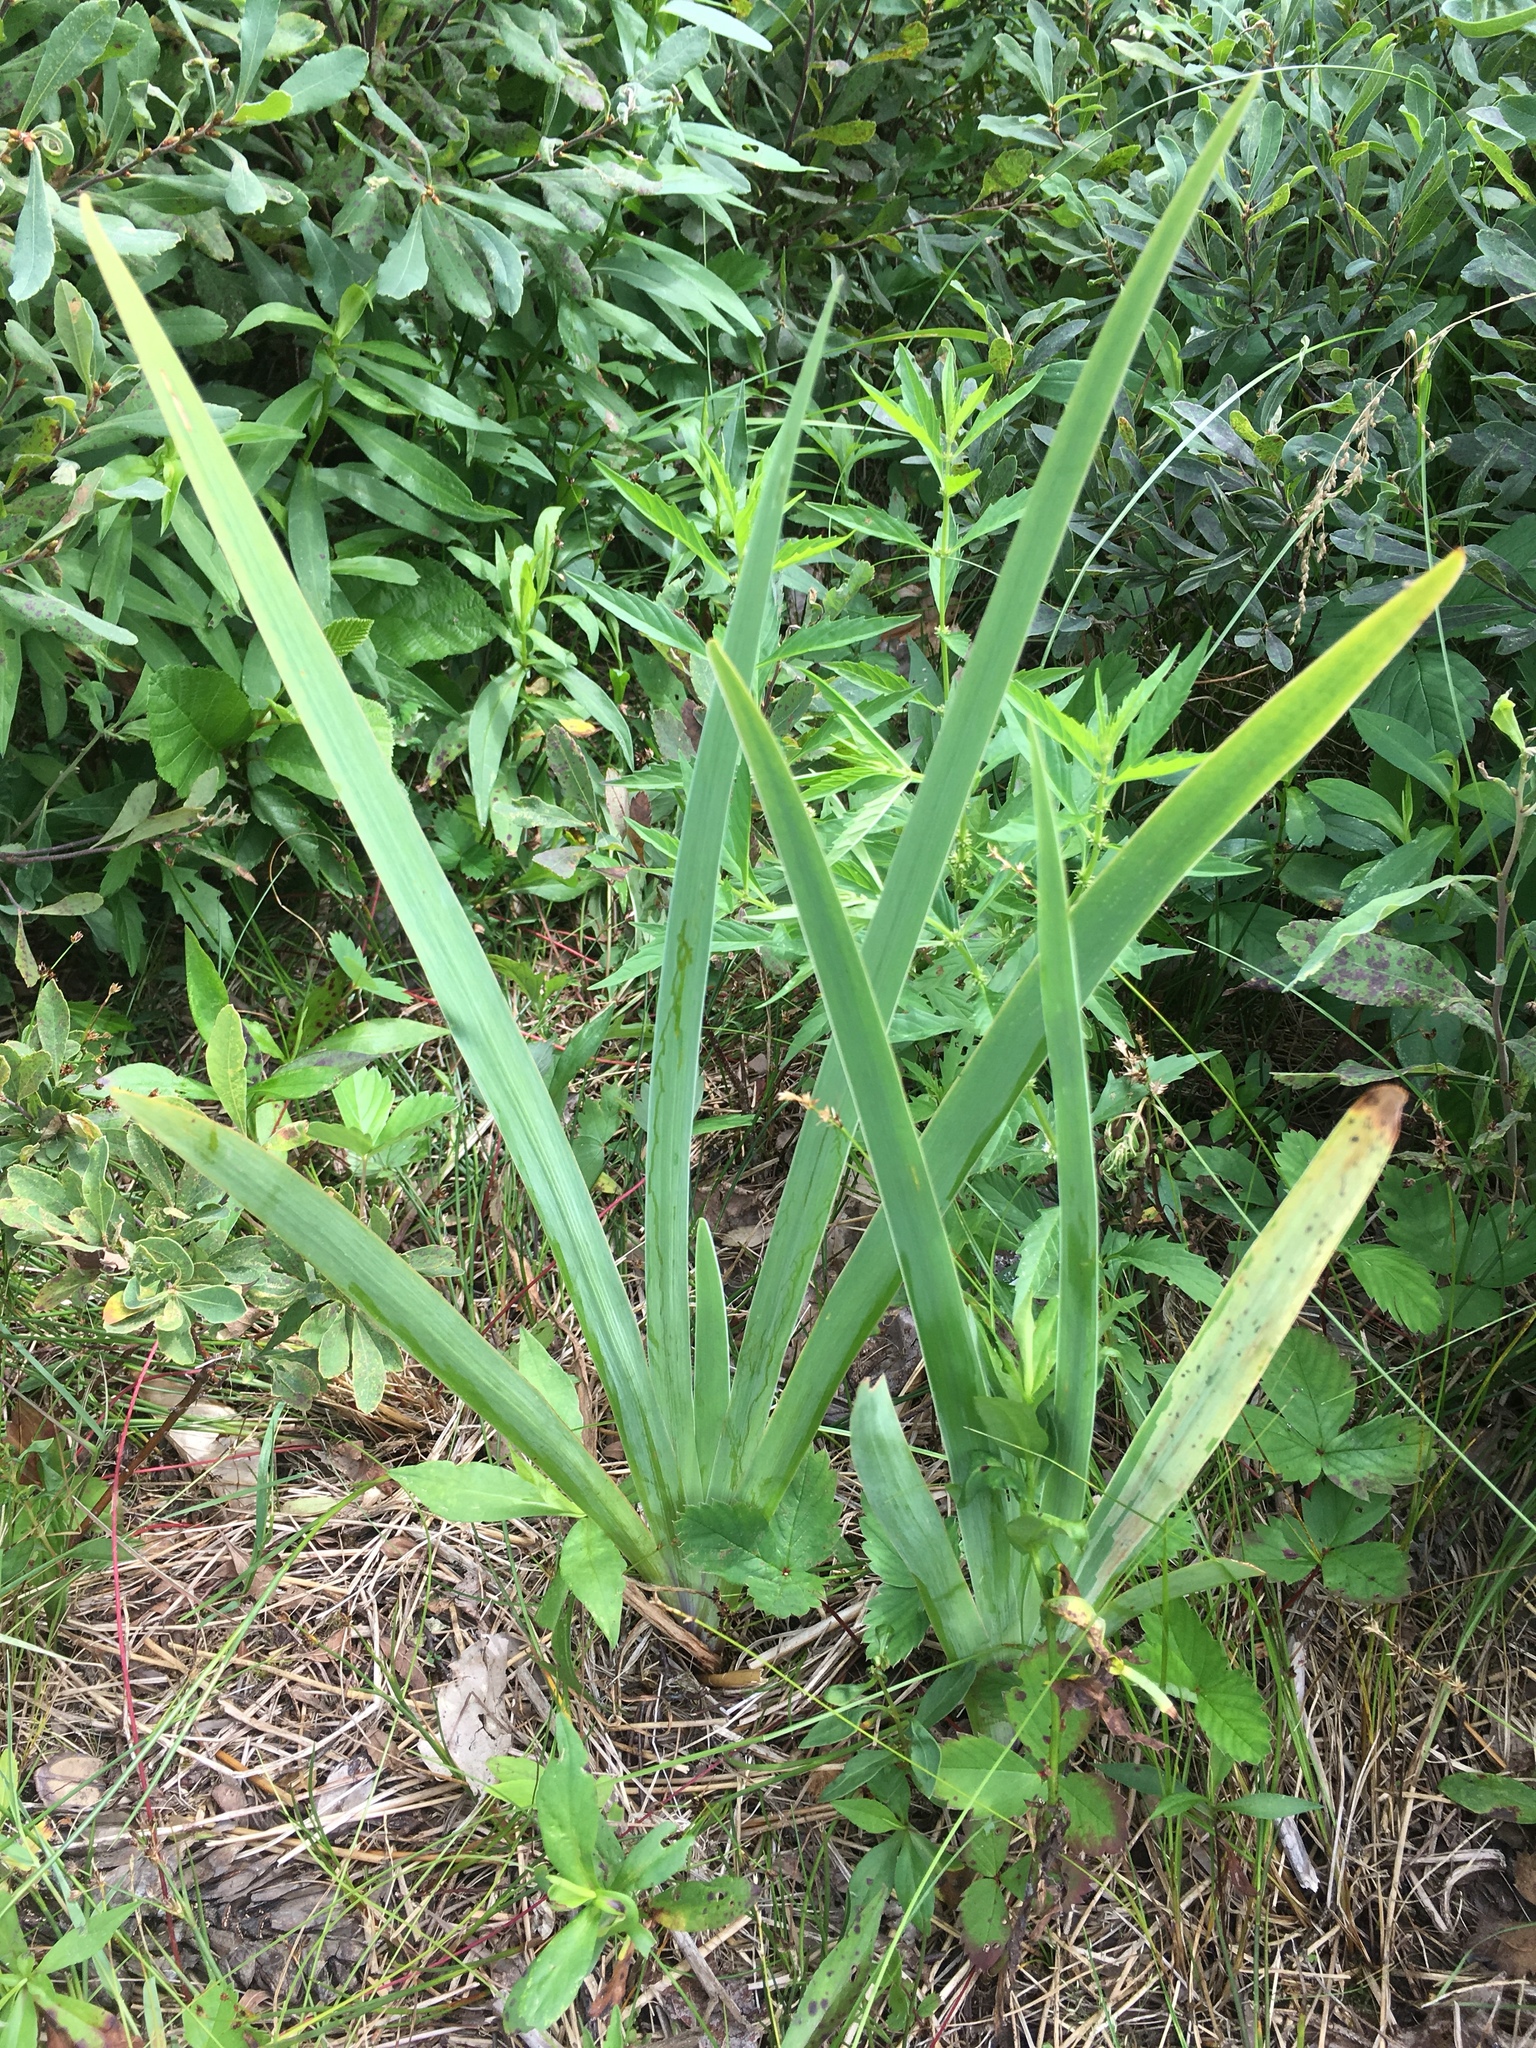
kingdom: Plantae
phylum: Tracheophyta
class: Liliopsida
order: Asparagales
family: Iridaceae
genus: Iris
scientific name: Iris versicolor
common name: Purple iris
